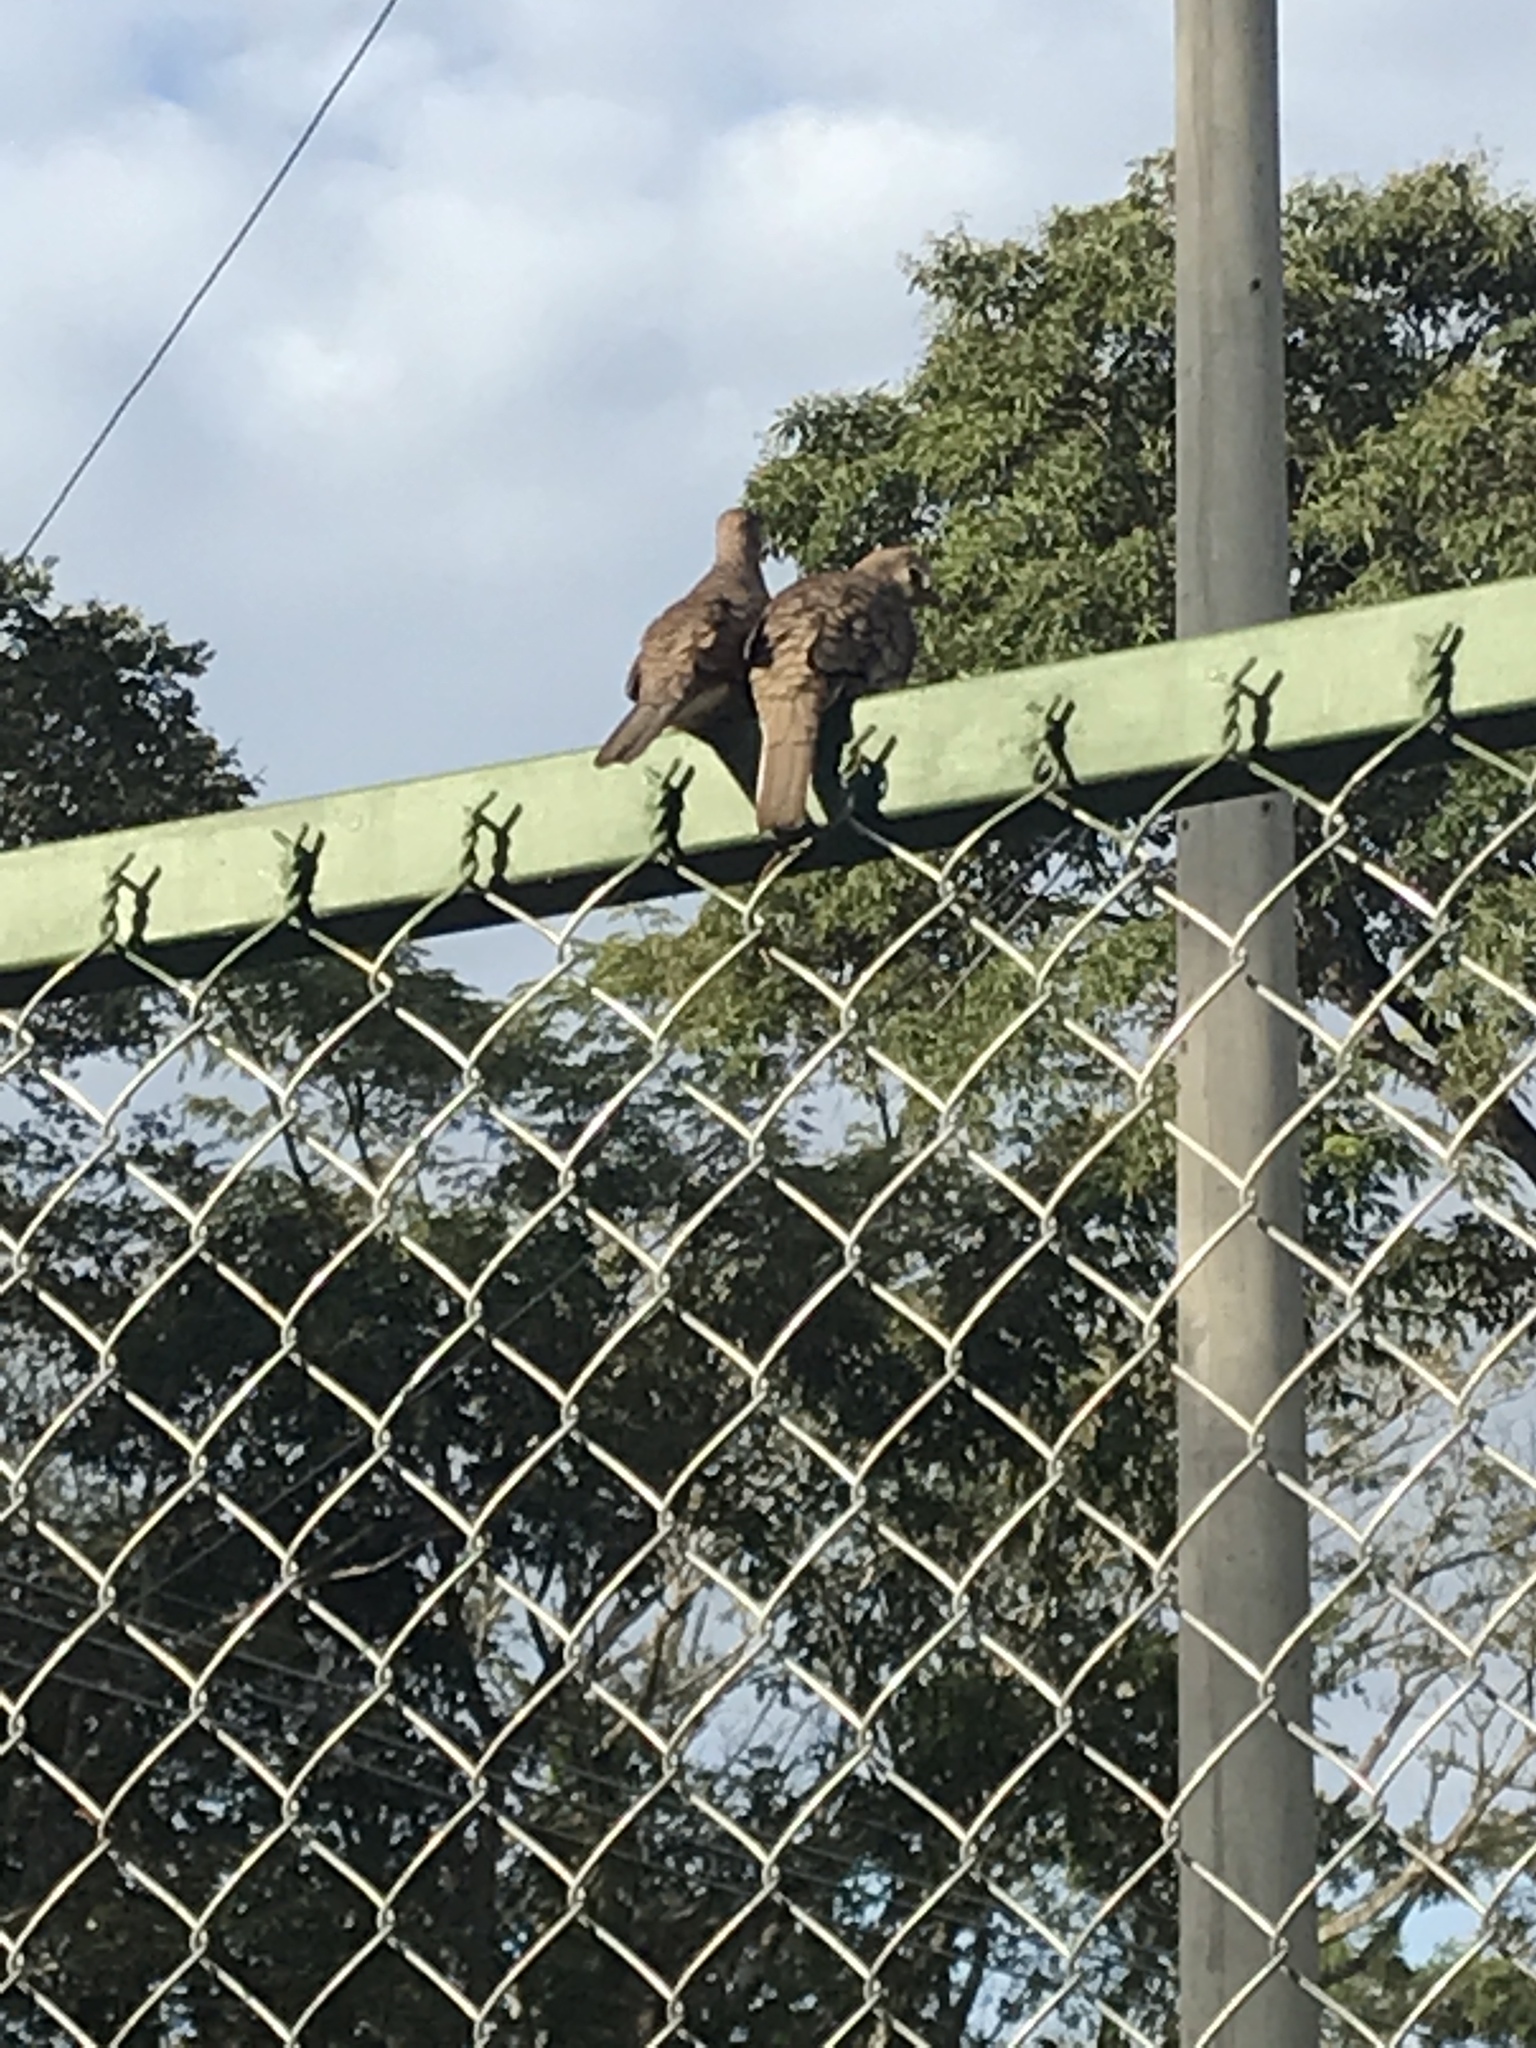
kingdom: Animalia
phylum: Chordata
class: Aves
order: Columbiformes
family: Columbidae
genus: Columbina
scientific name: Columbina inca
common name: Inca dove
